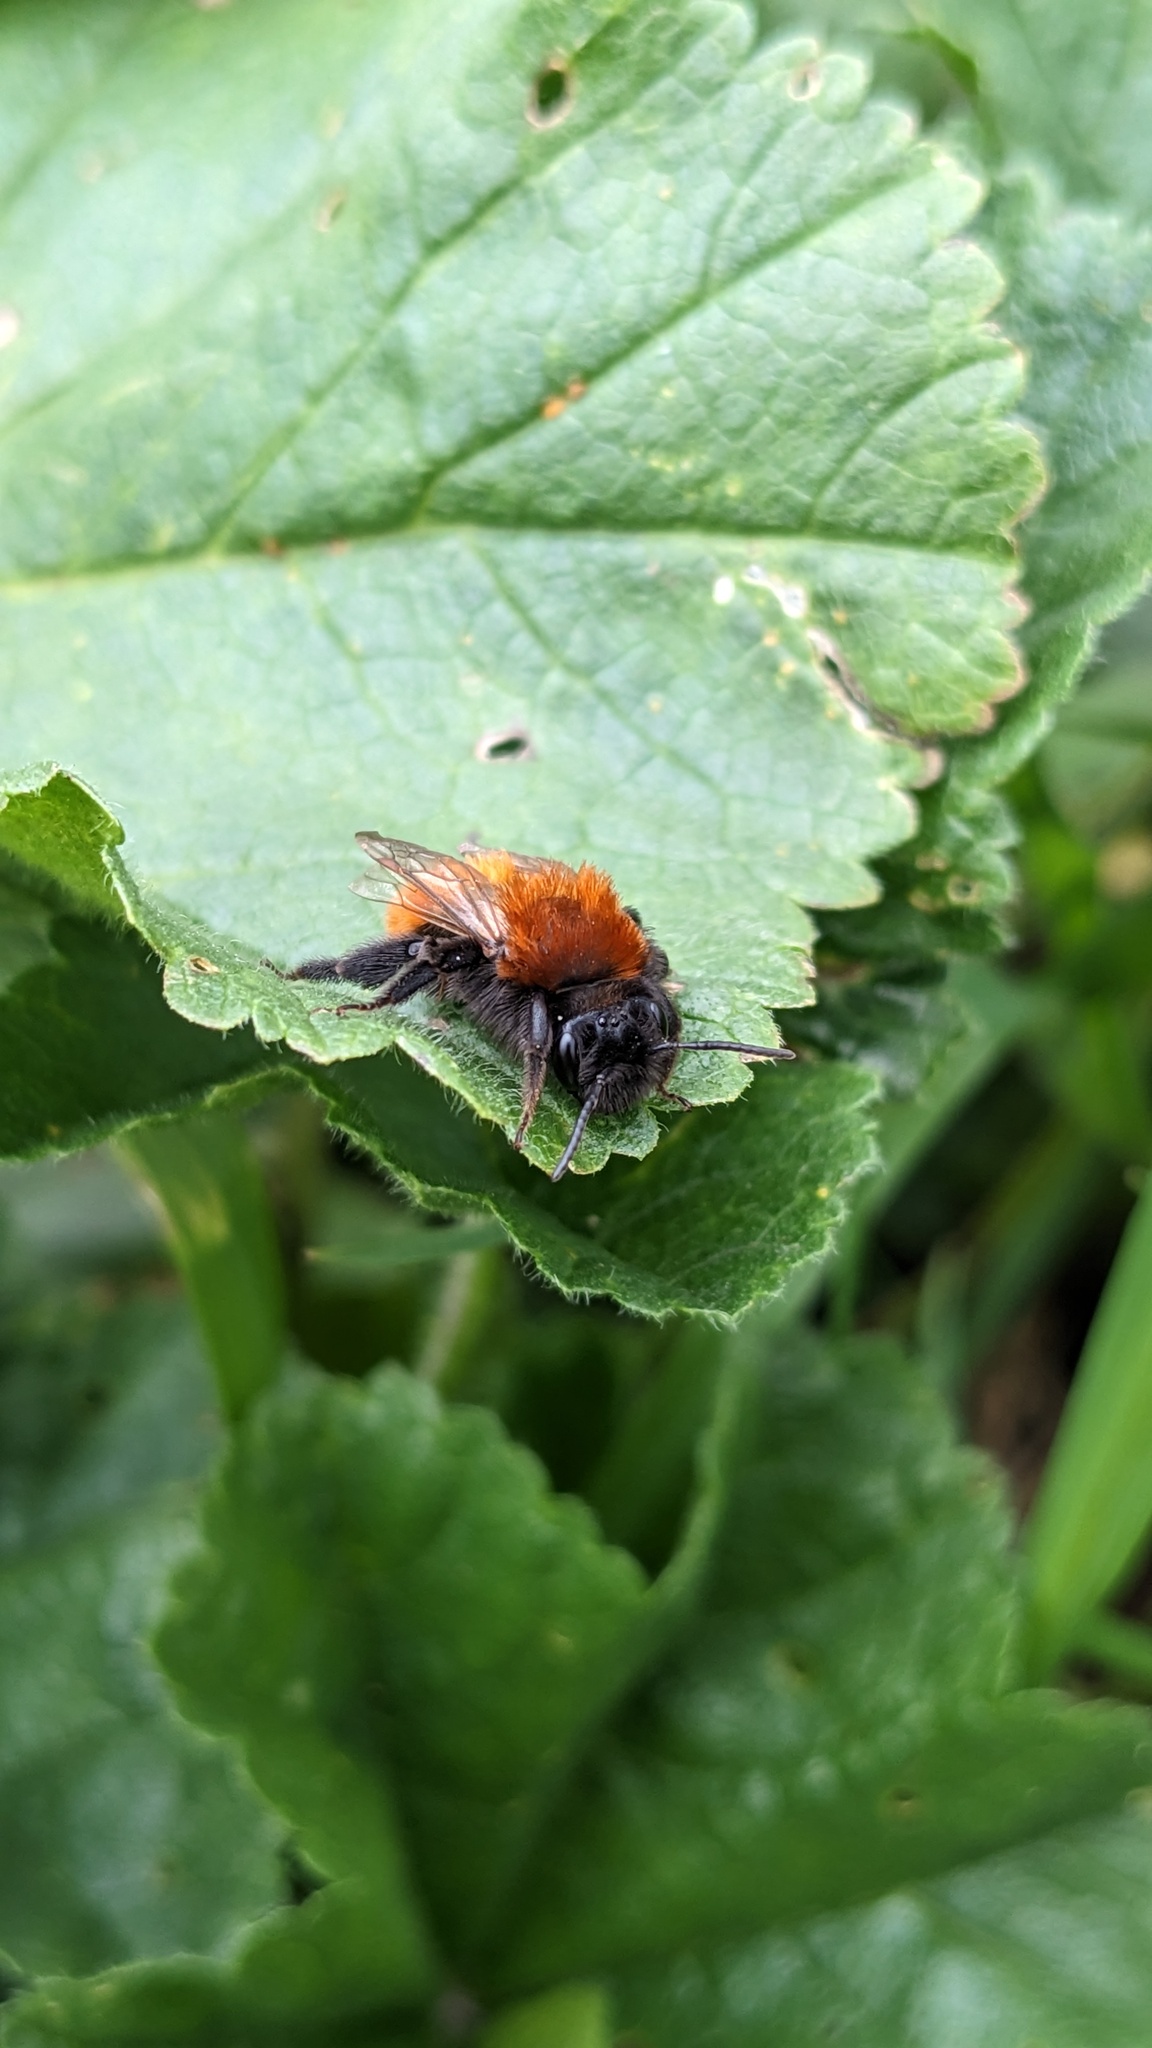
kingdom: Animalia
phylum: Arthropoda
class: Insecta
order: Hymenoptera
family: Andrenidae
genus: Andrena
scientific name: Andrena fulva
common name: Tawny mining bee
